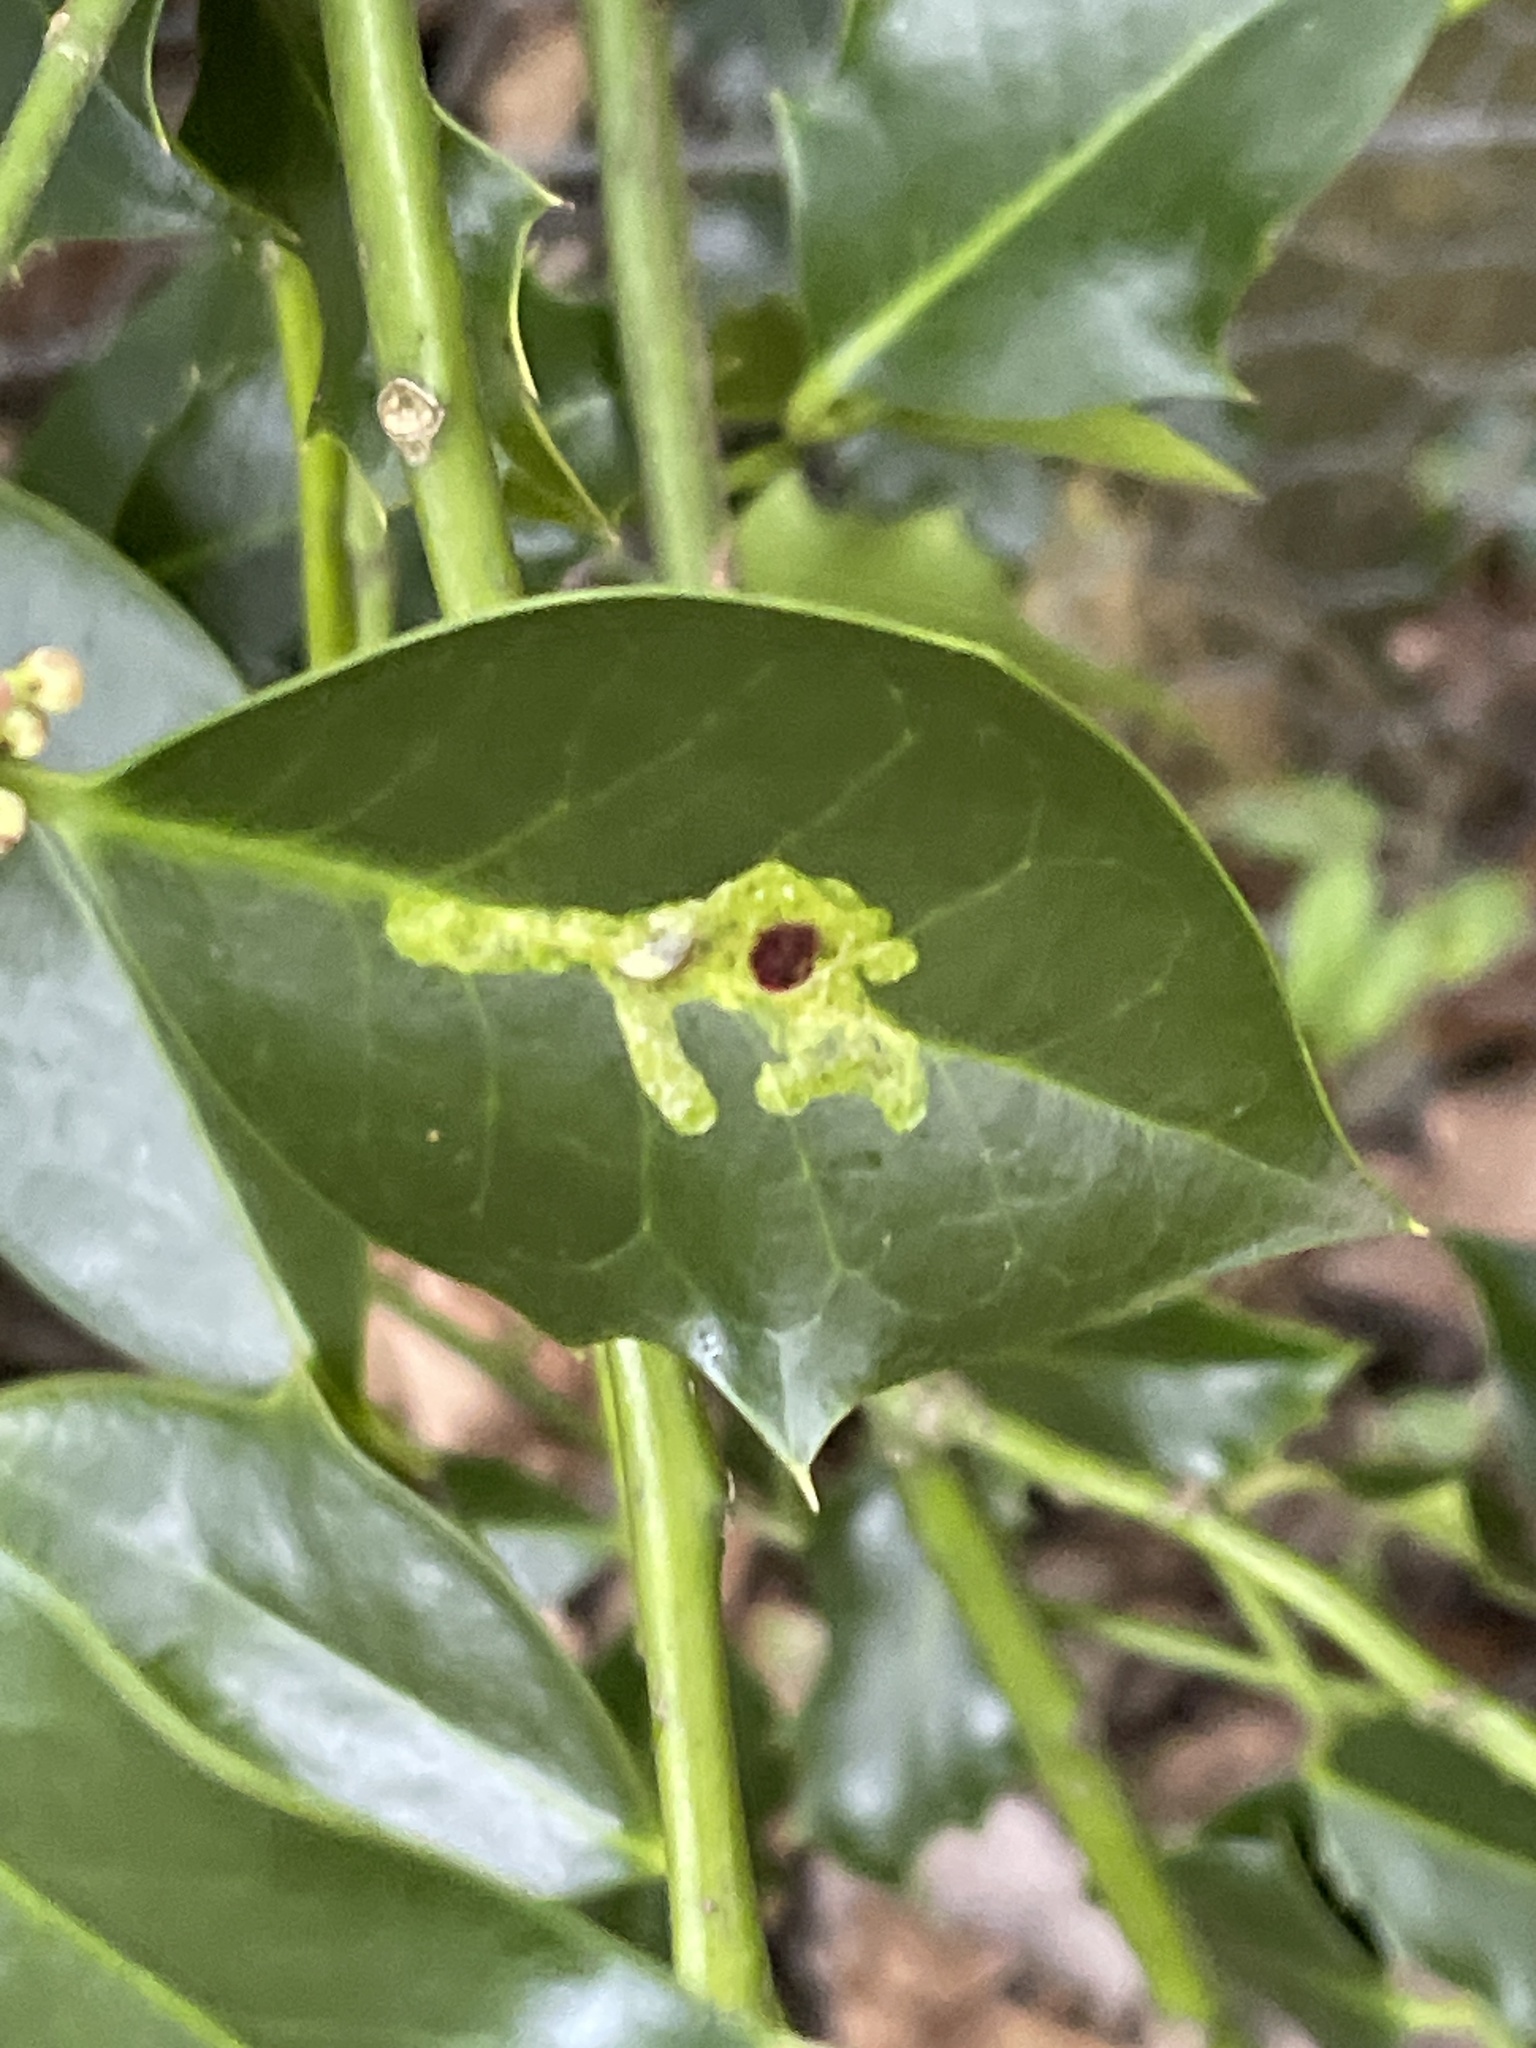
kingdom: Animalia
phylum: Arthropoda
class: Insecta
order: Diptera
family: Agromyzidae
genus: Phytomyza
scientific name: Phytomyza ilicis
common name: Holly leafminer
